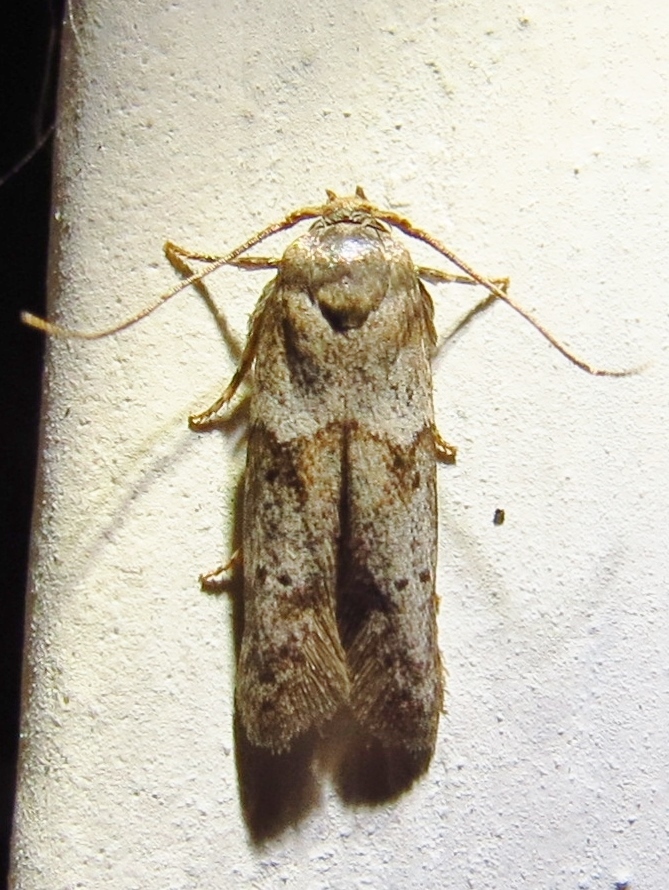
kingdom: Animalia
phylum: Arthropoda
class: Insecta
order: Lepidoptera
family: Blastobasidae
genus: Blastobasis
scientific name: Blastobasis glandulella
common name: Acorn moth
